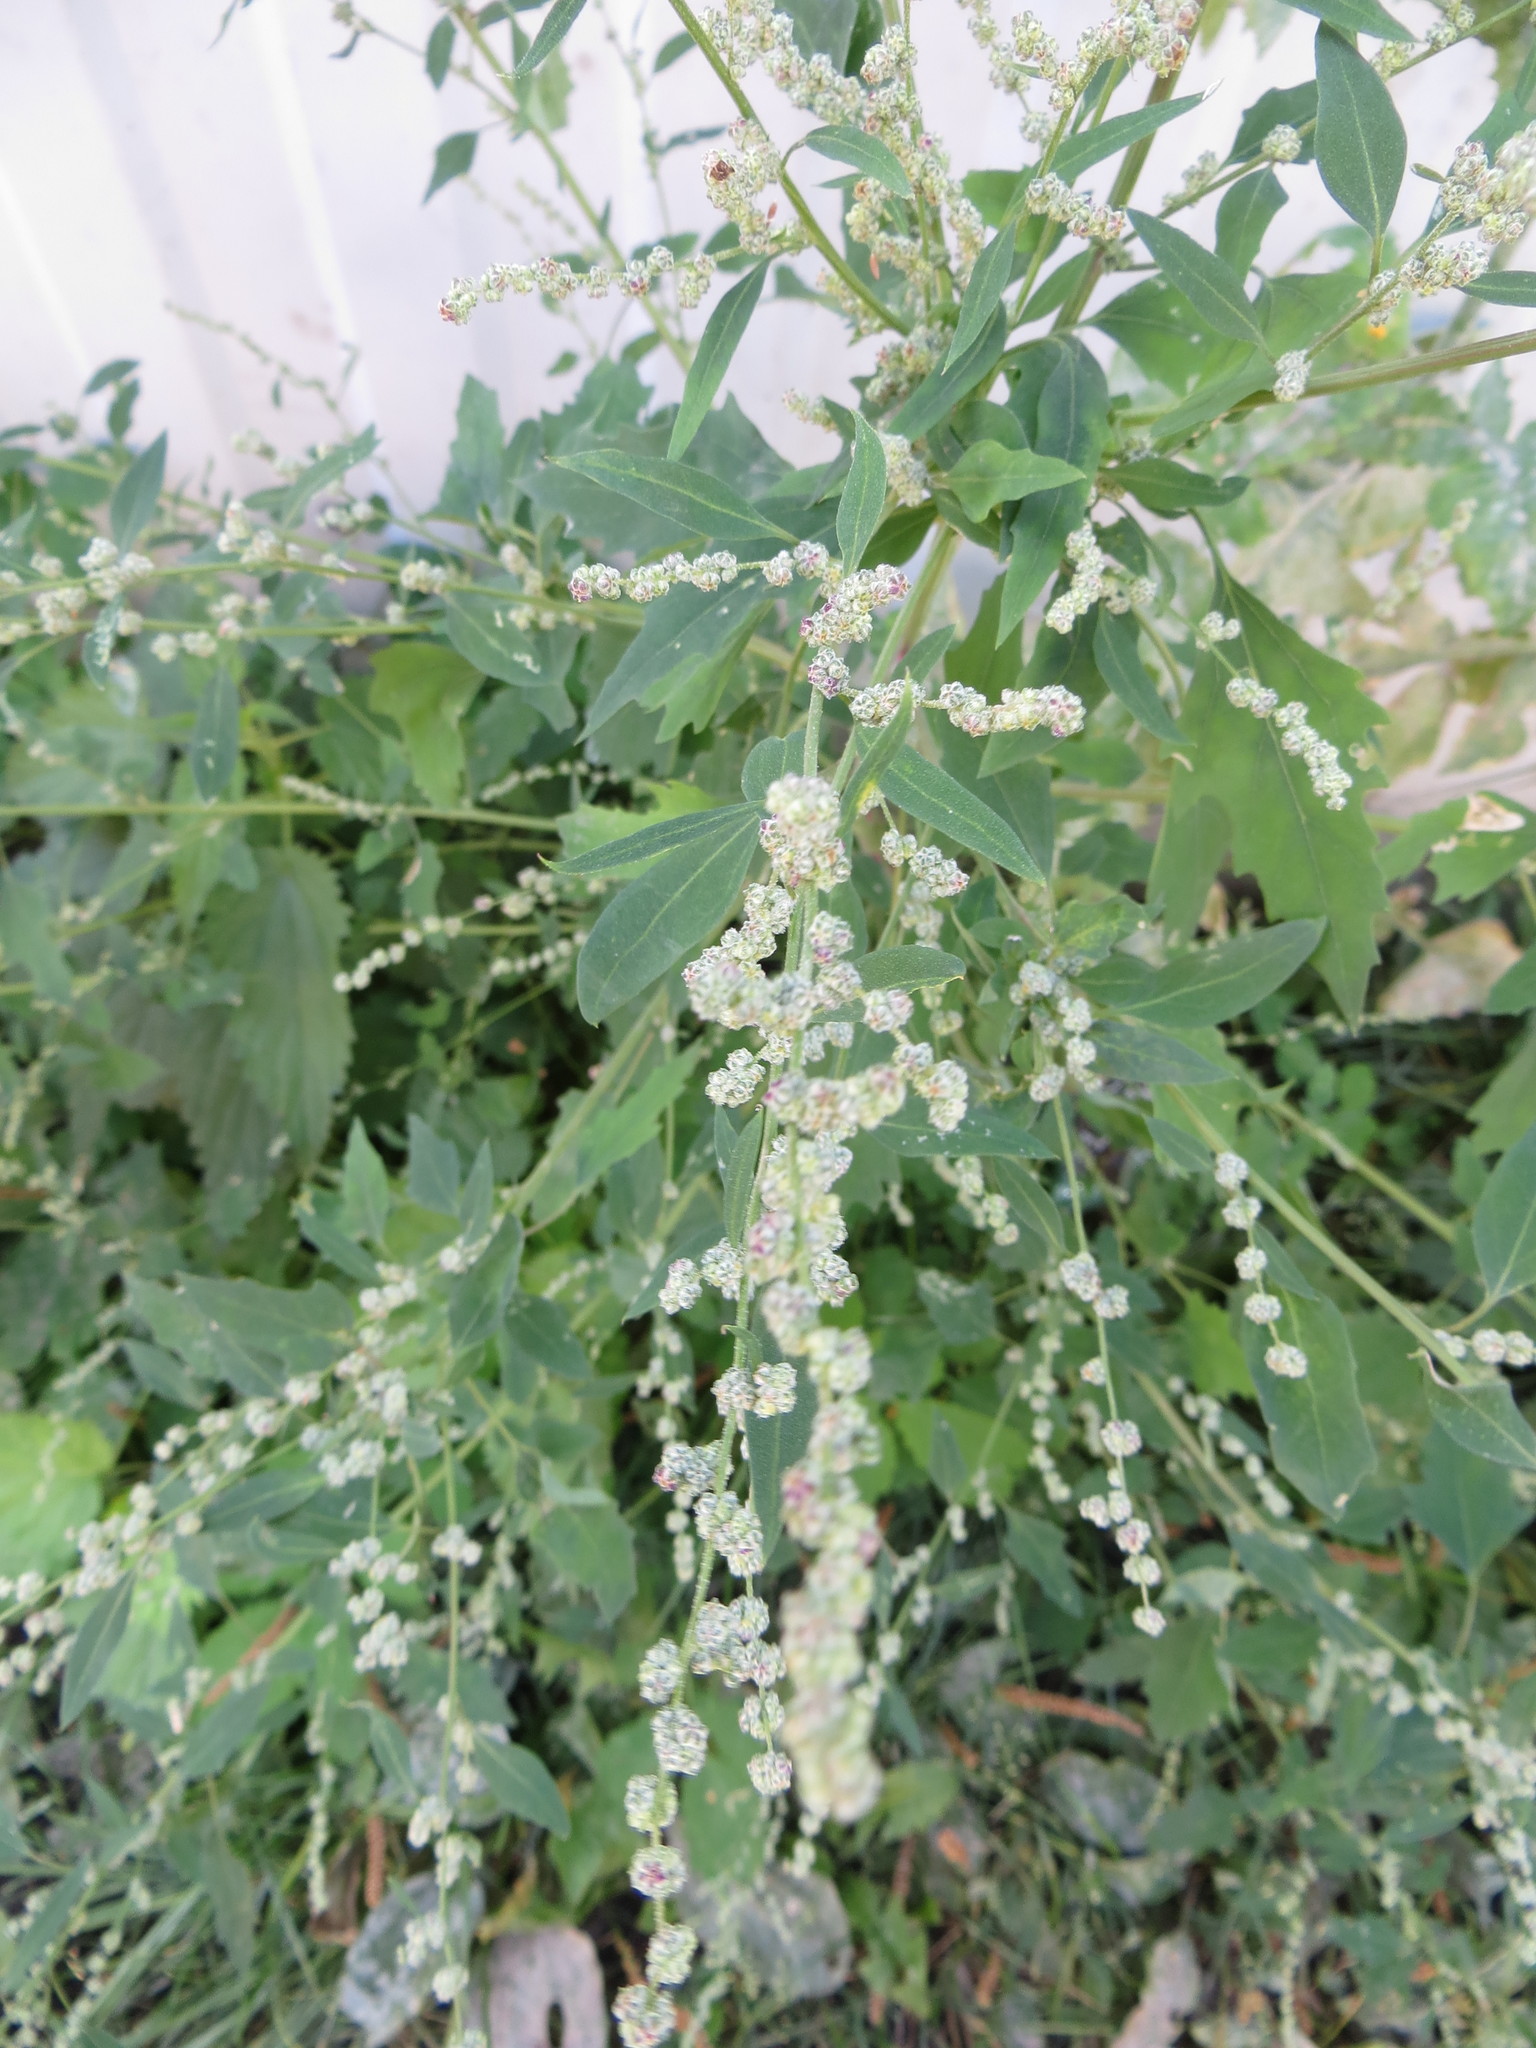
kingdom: Plantae
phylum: Tracheophyta
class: Magnoliopsida
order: Caryophyllales
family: Amaranthaceae
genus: Chenopodium
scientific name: Chenopodium album
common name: Fat-hen
